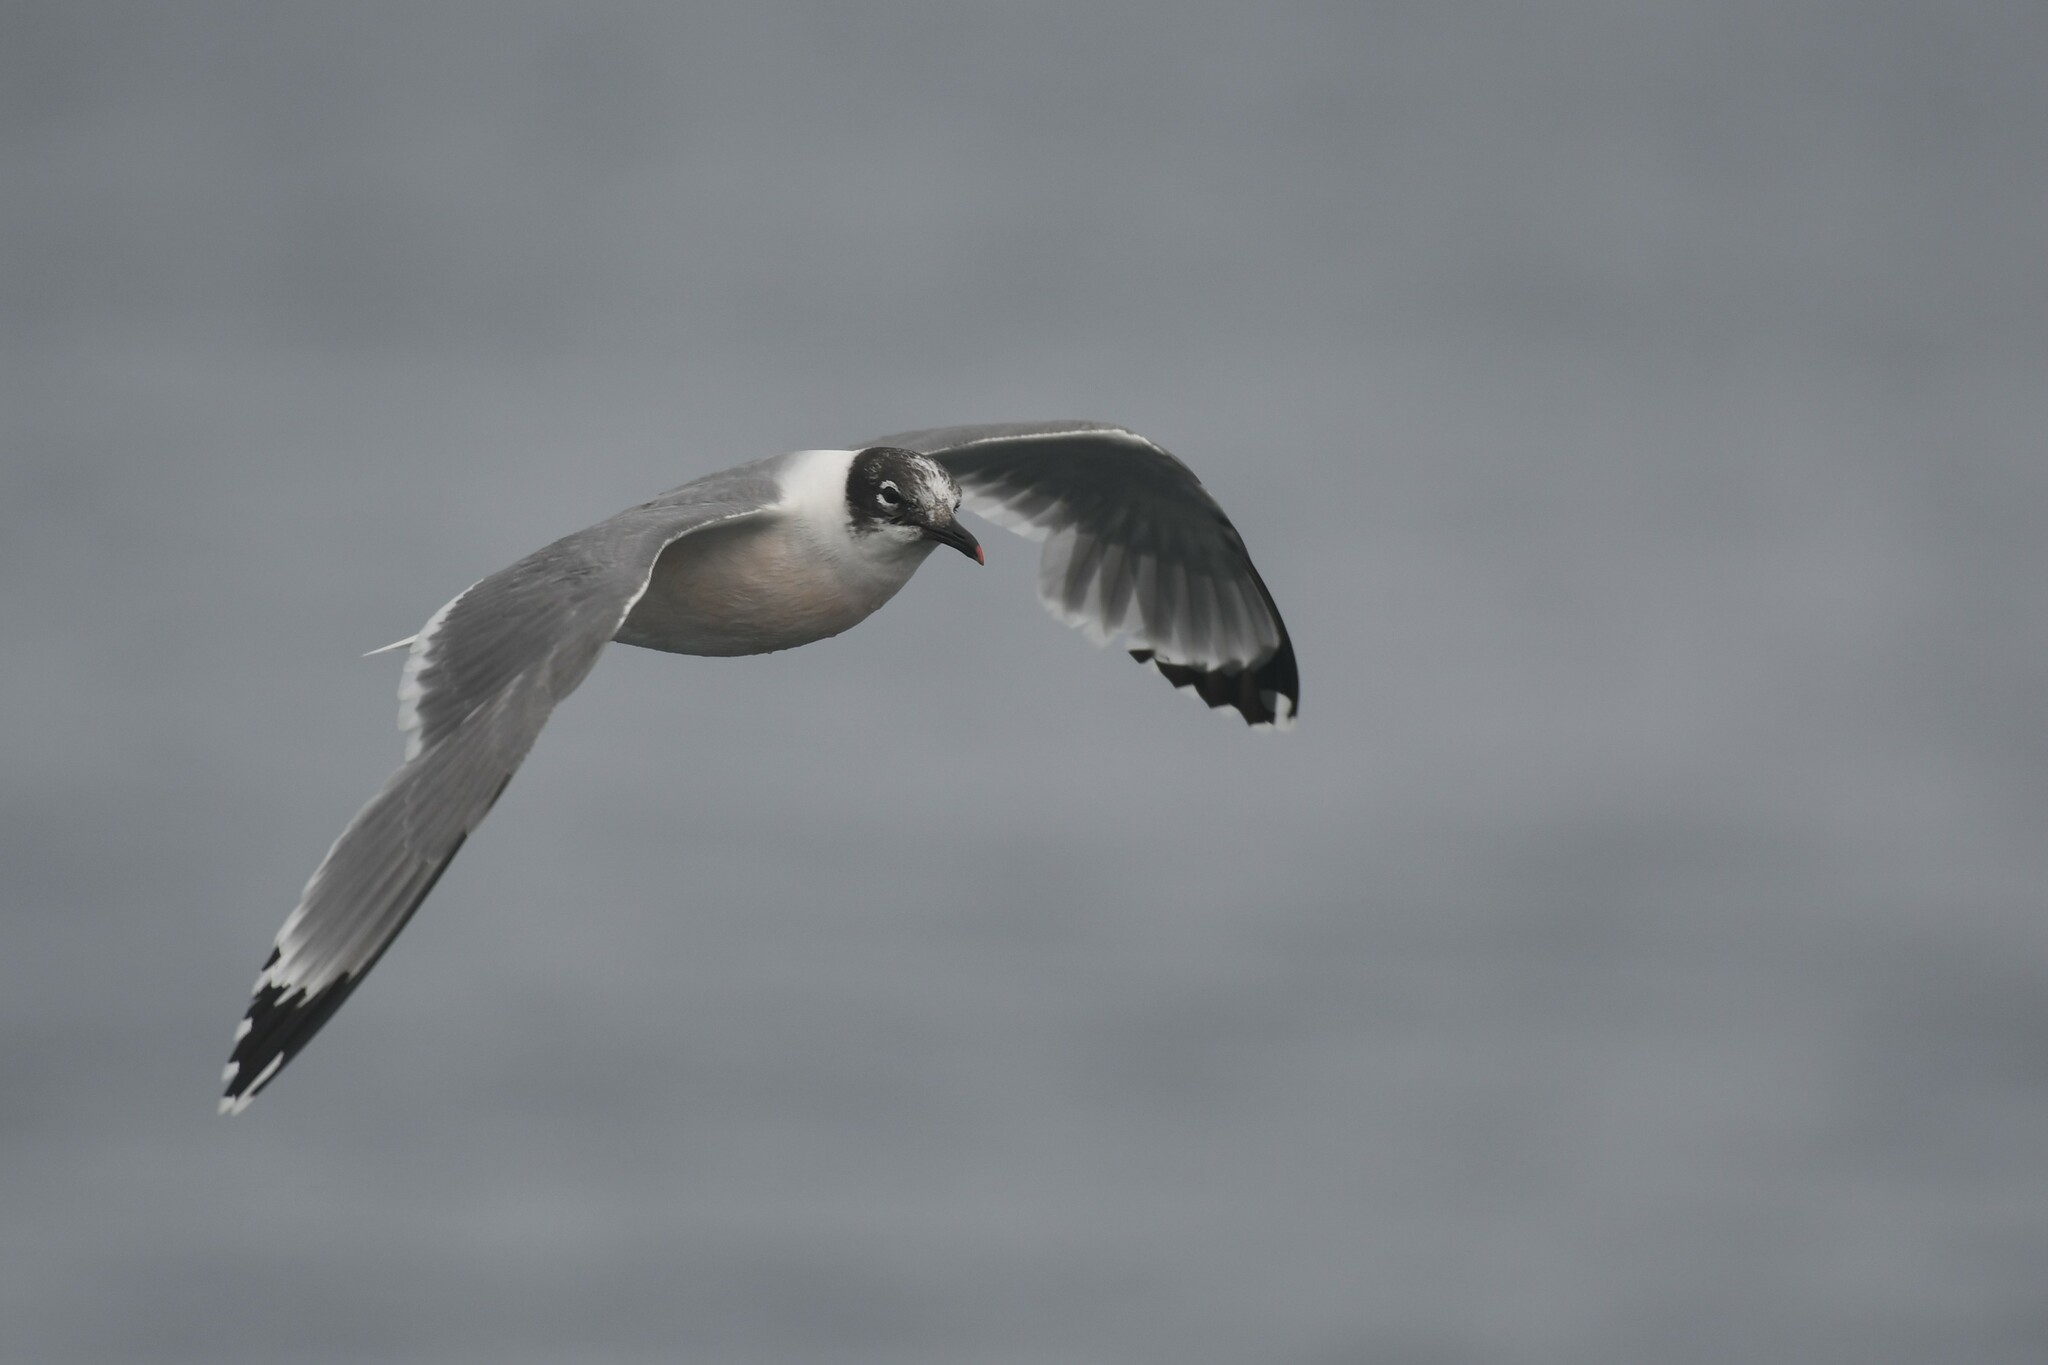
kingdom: Animalia
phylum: Chordata
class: Aves
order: Charadriiformes
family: Laridae
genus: Leucophaeus
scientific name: Leucophaeus pipixcan
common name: Franklin's gull
